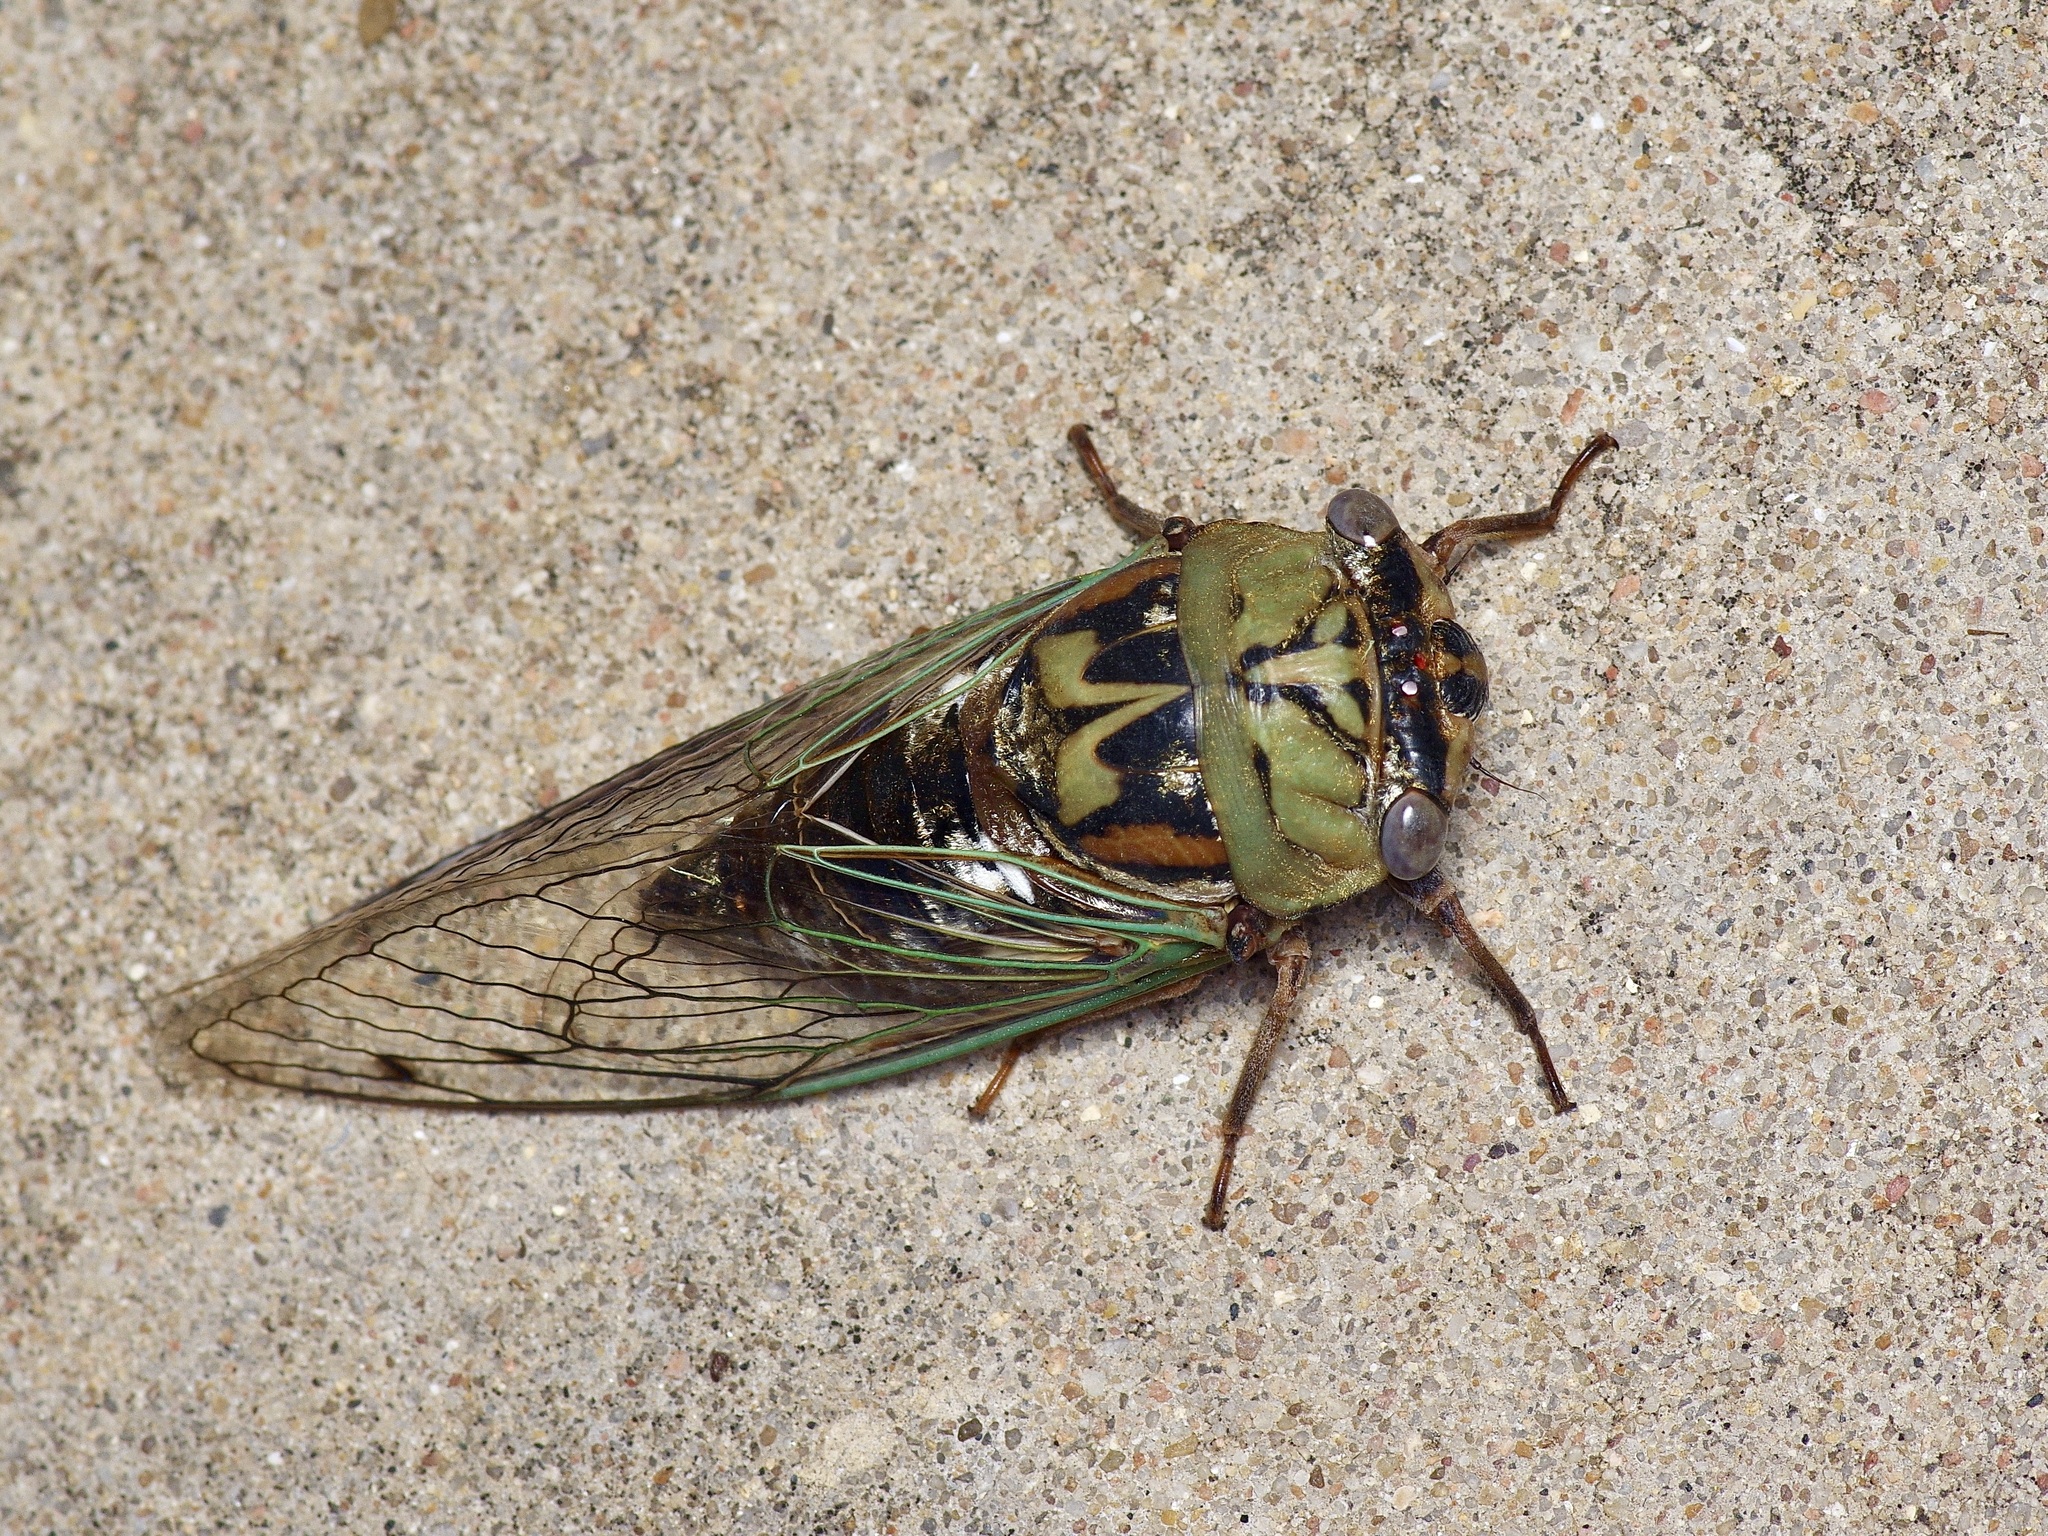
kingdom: Animalia
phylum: Arthropoda
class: Insecta
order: Hemiptera
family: Cicadidae
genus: Megatibicen
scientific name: Megatibicen resh
